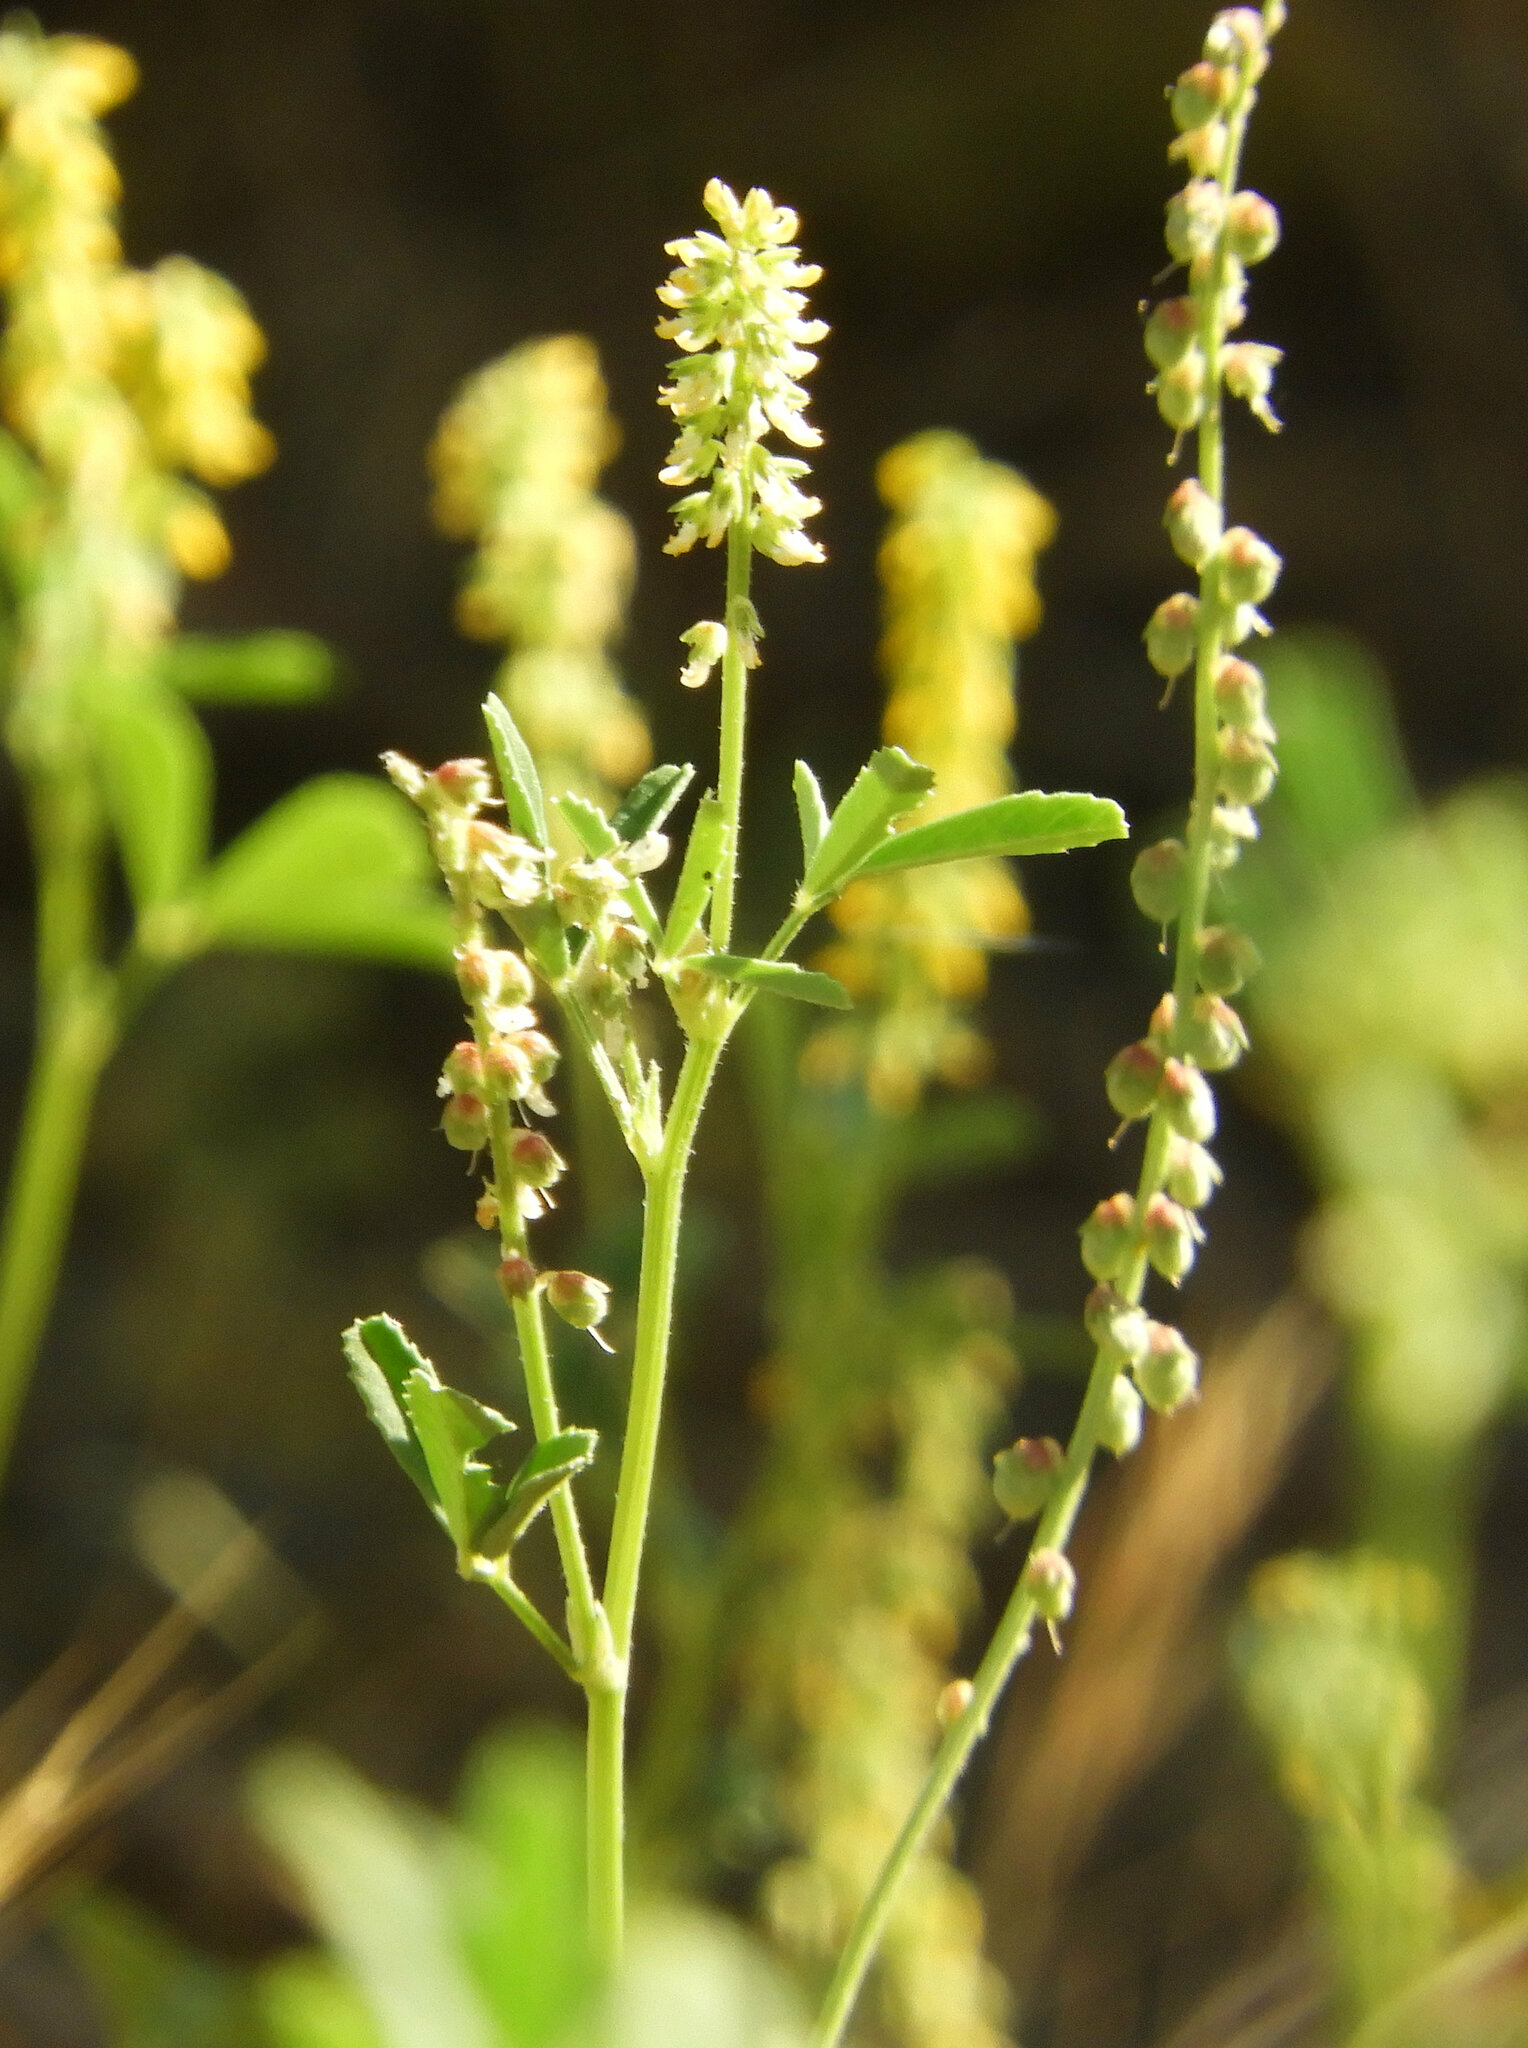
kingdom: Plantae
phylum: Tracheophyta
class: Magnoliopsida
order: Fabales
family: Fabaceae
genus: Melilotus
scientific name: Melilotus indicus
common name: Small melilot
